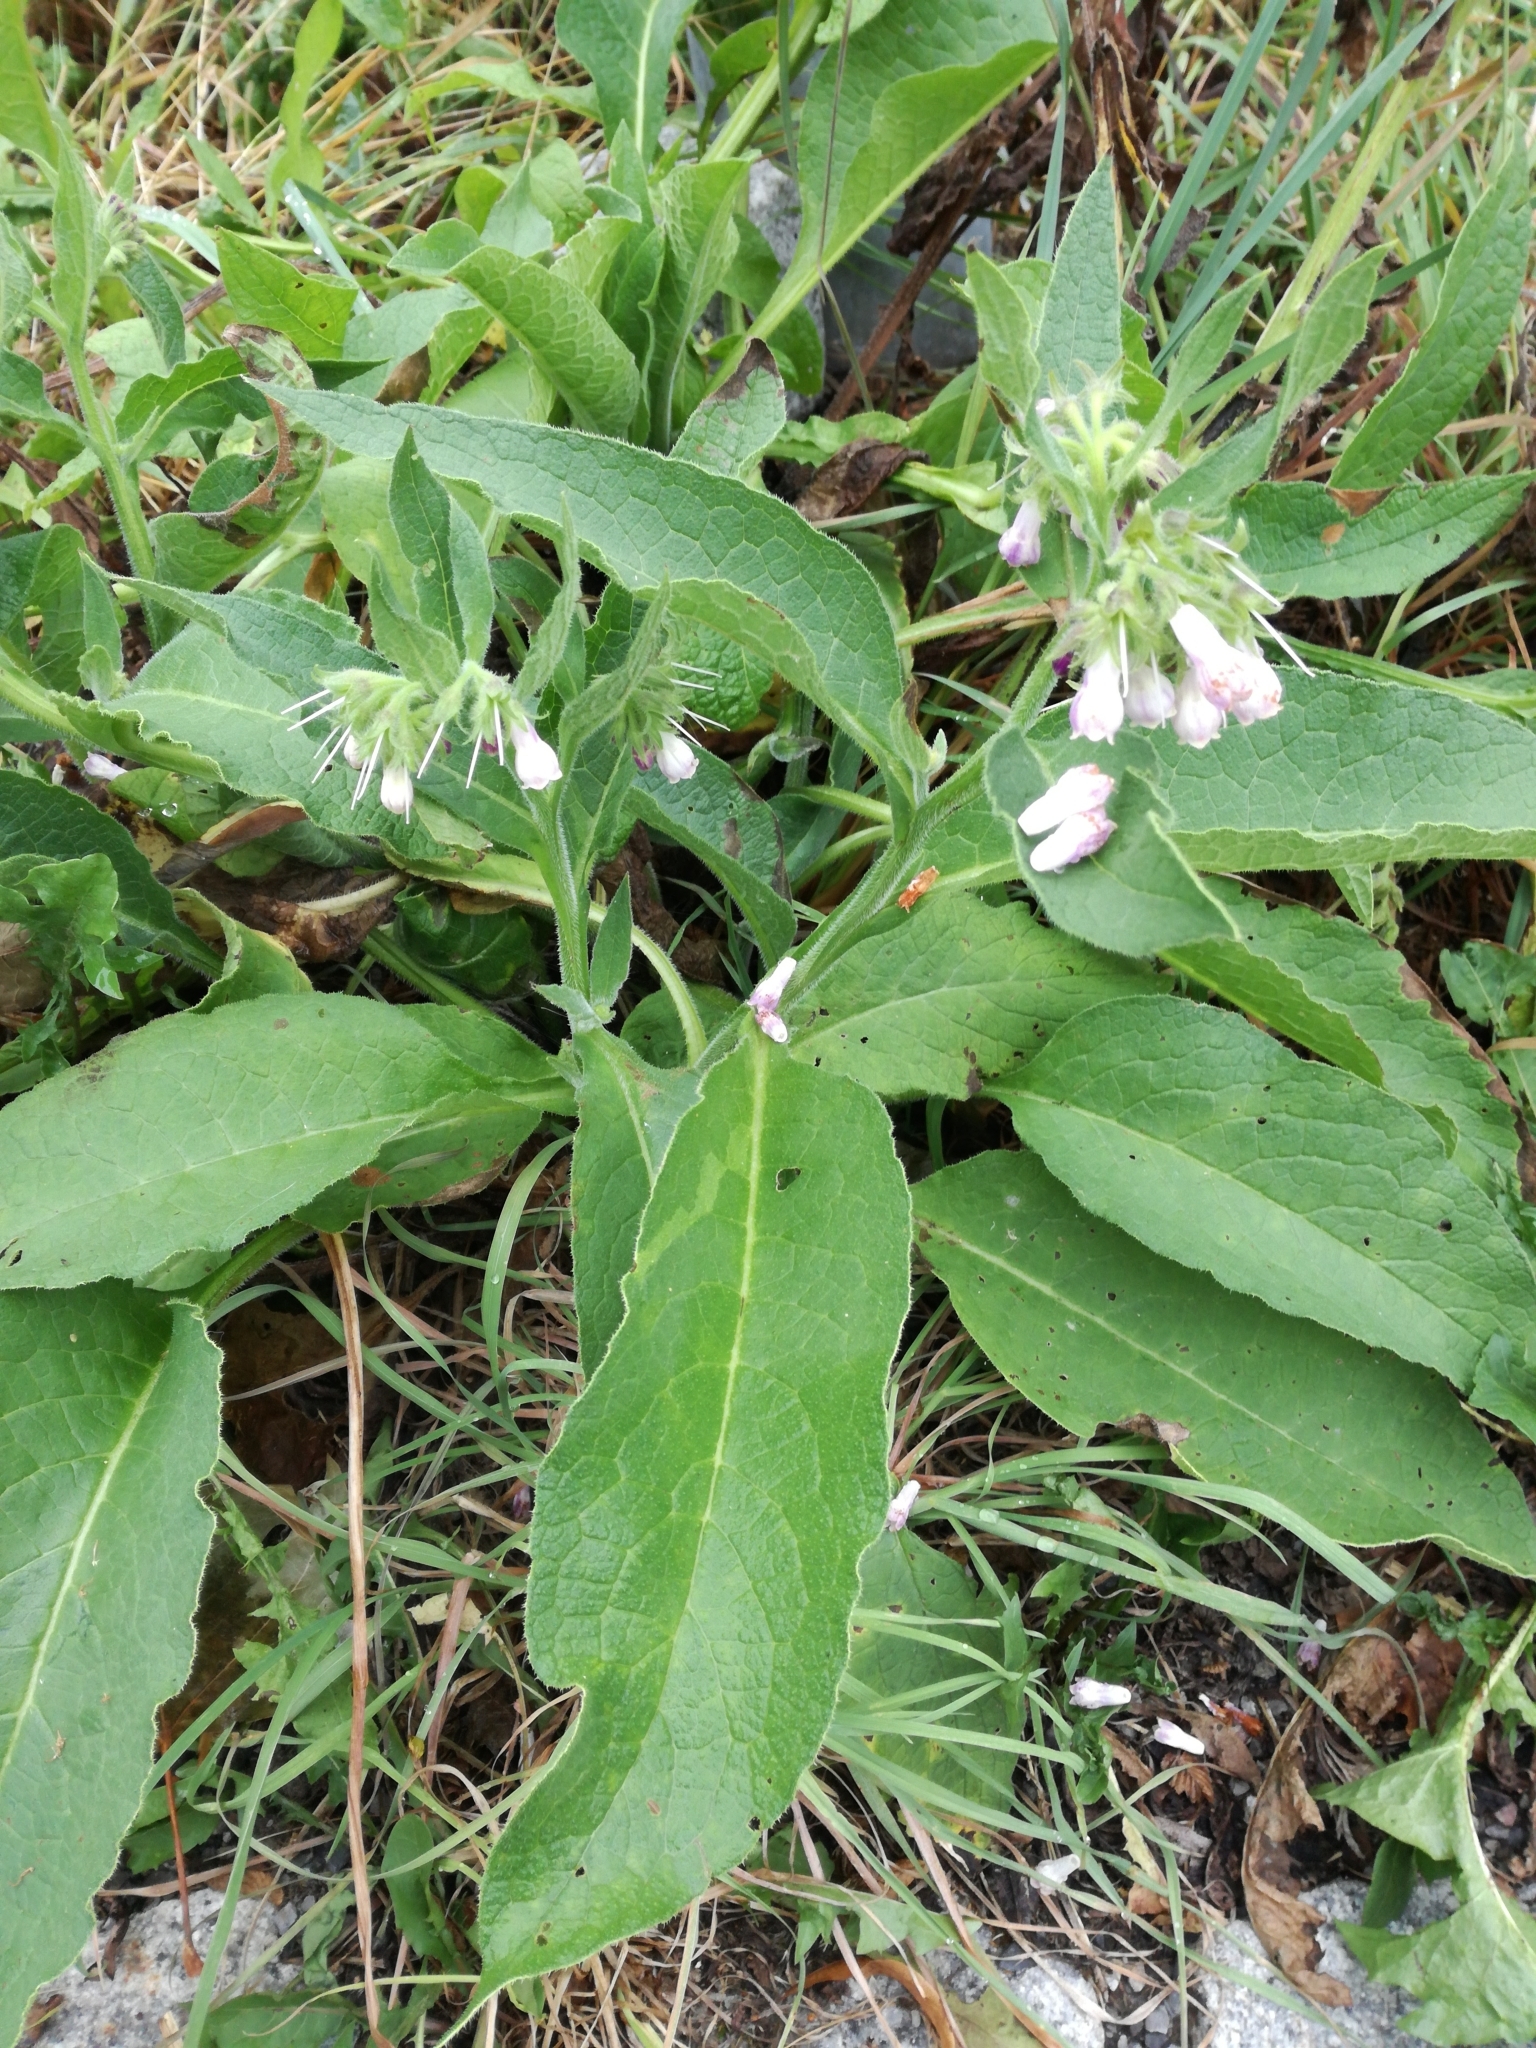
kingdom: Plantae
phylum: Tracheophyta
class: Magnoliopsida
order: Boraginales
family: Boraginaceae
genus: Symphytum
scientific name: Symphytum officinale
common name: Common comfrey
